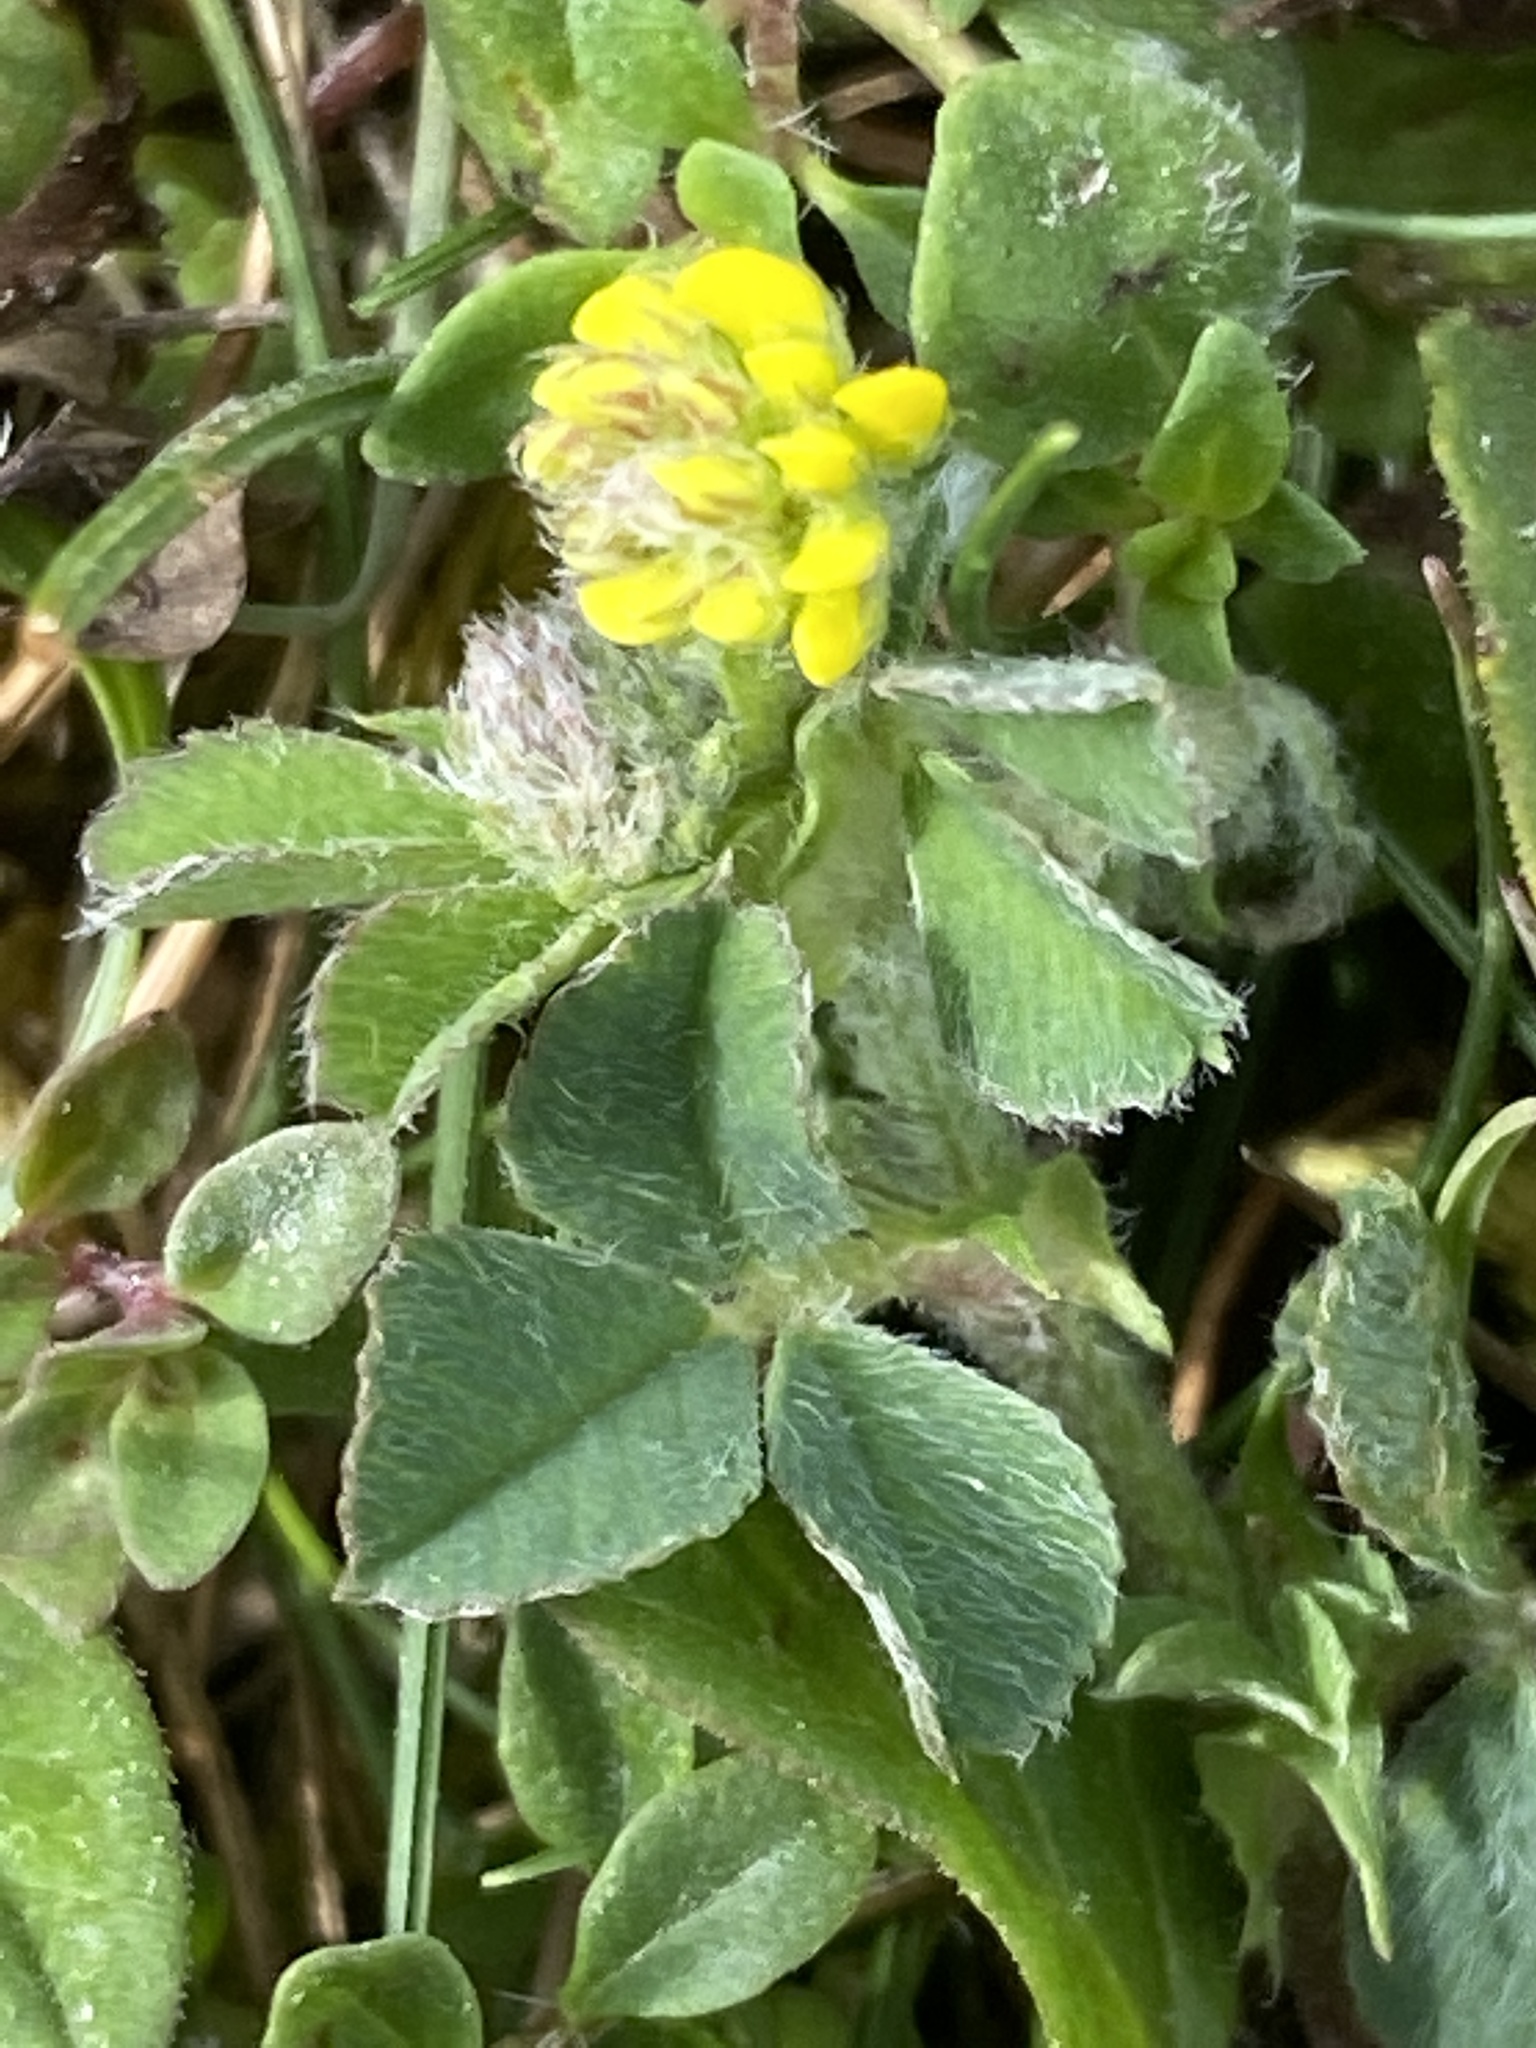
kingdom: Plantae
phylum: Tracheophyta
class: Magnoliopsida
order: Fabales
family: Fabaceae
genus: Medicago
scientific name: Medicago lupulina
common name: Black medick
